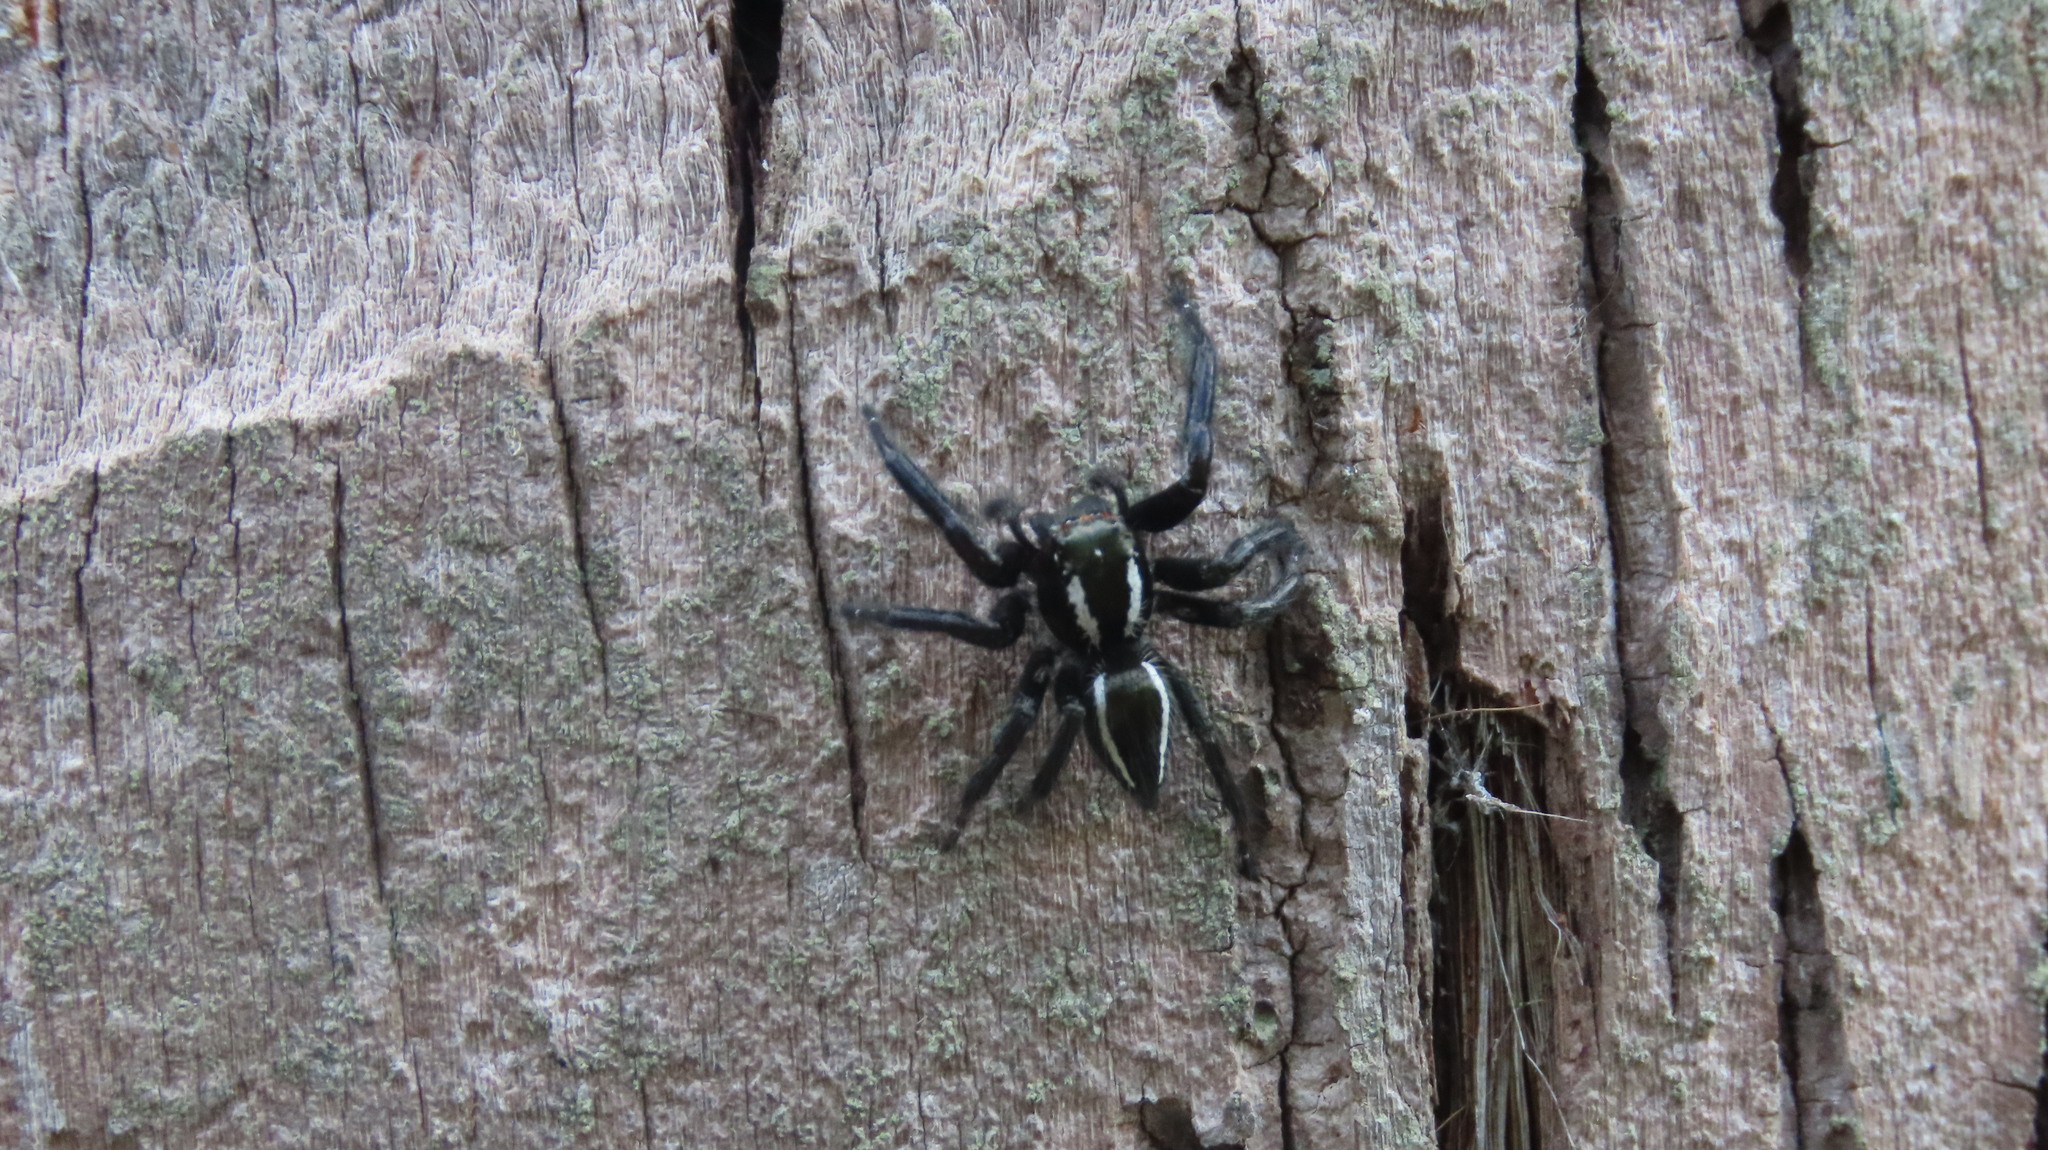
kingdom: Animalia
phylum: Arthropoda
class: Arachnida
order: Araneae
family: Salticidae
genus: Carrhotus
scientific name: Carrhotus viduus
